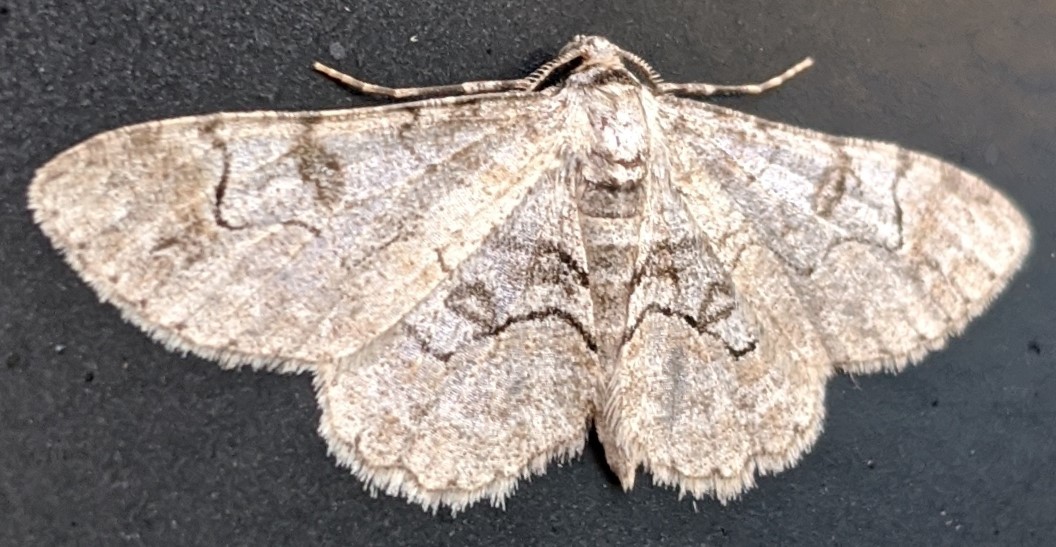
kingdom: Animalia
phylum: Arthropoda
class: Insecta
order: Lepidoptera
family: Geometridae
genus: Iridopsis
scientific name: Iridopsis larvaria
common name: Bent-line gray
